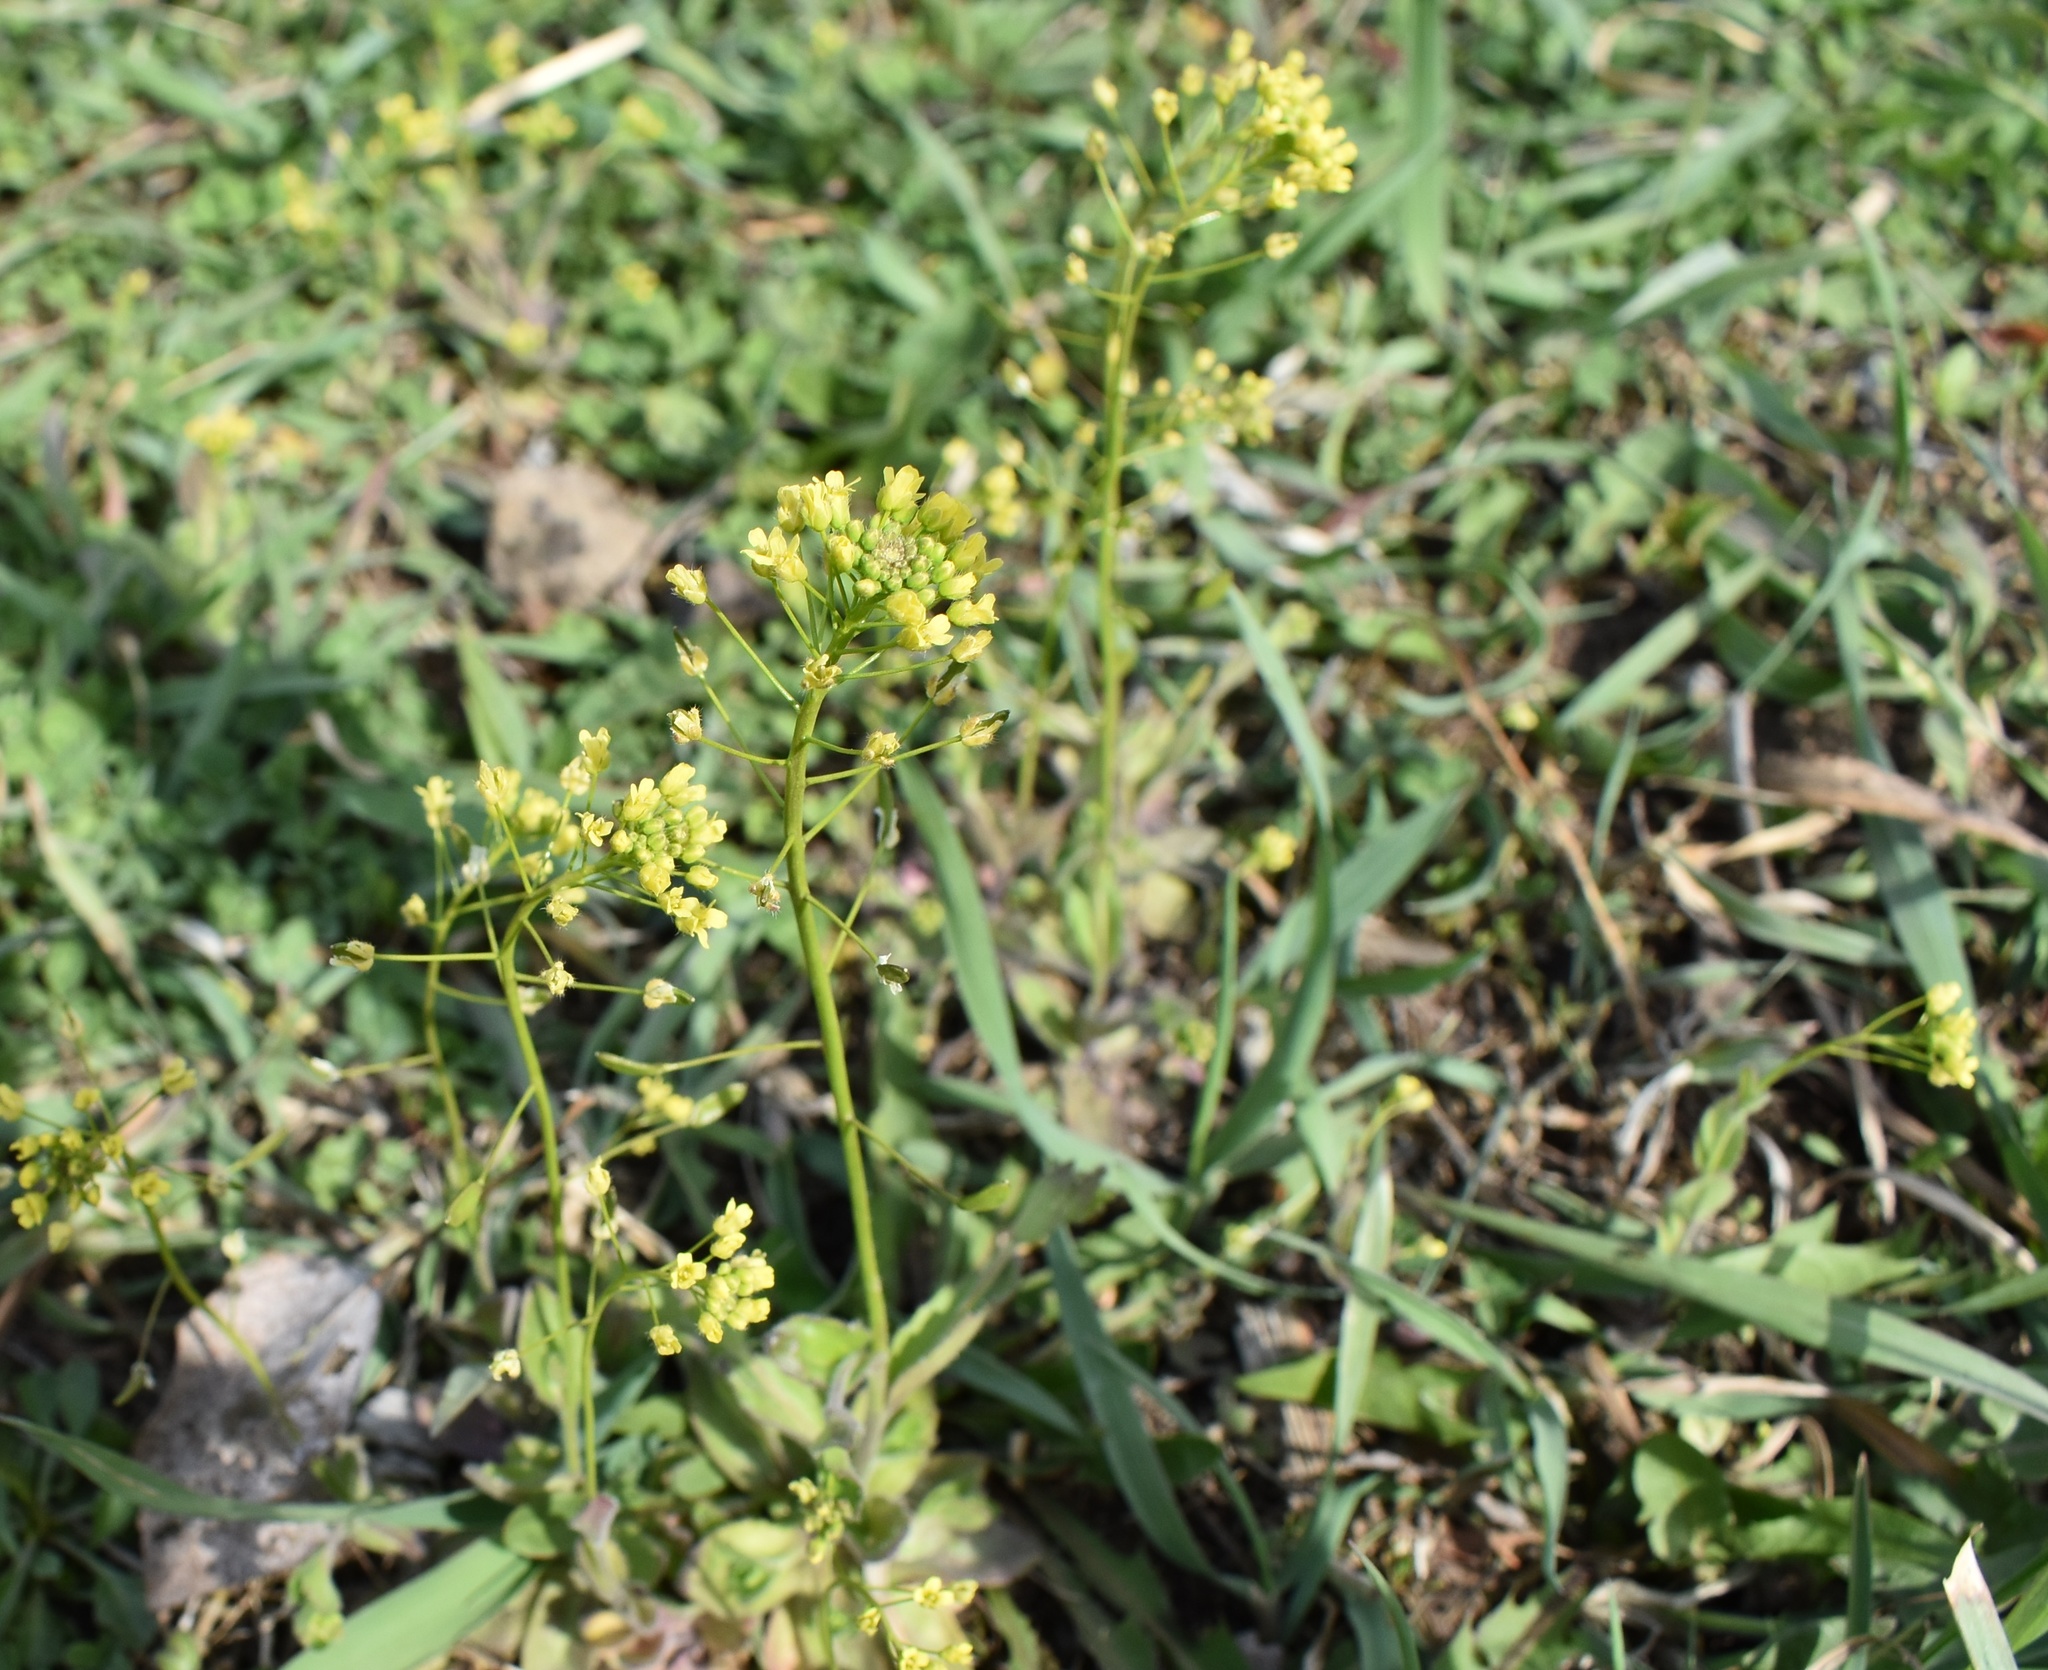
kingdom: Plantae
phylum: Tracheophyta
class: Magnoliopsida
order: Brassicales
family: Brassicaceae
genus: Draba
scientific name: Draba nemorosa
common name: Wood whitlow-grass
